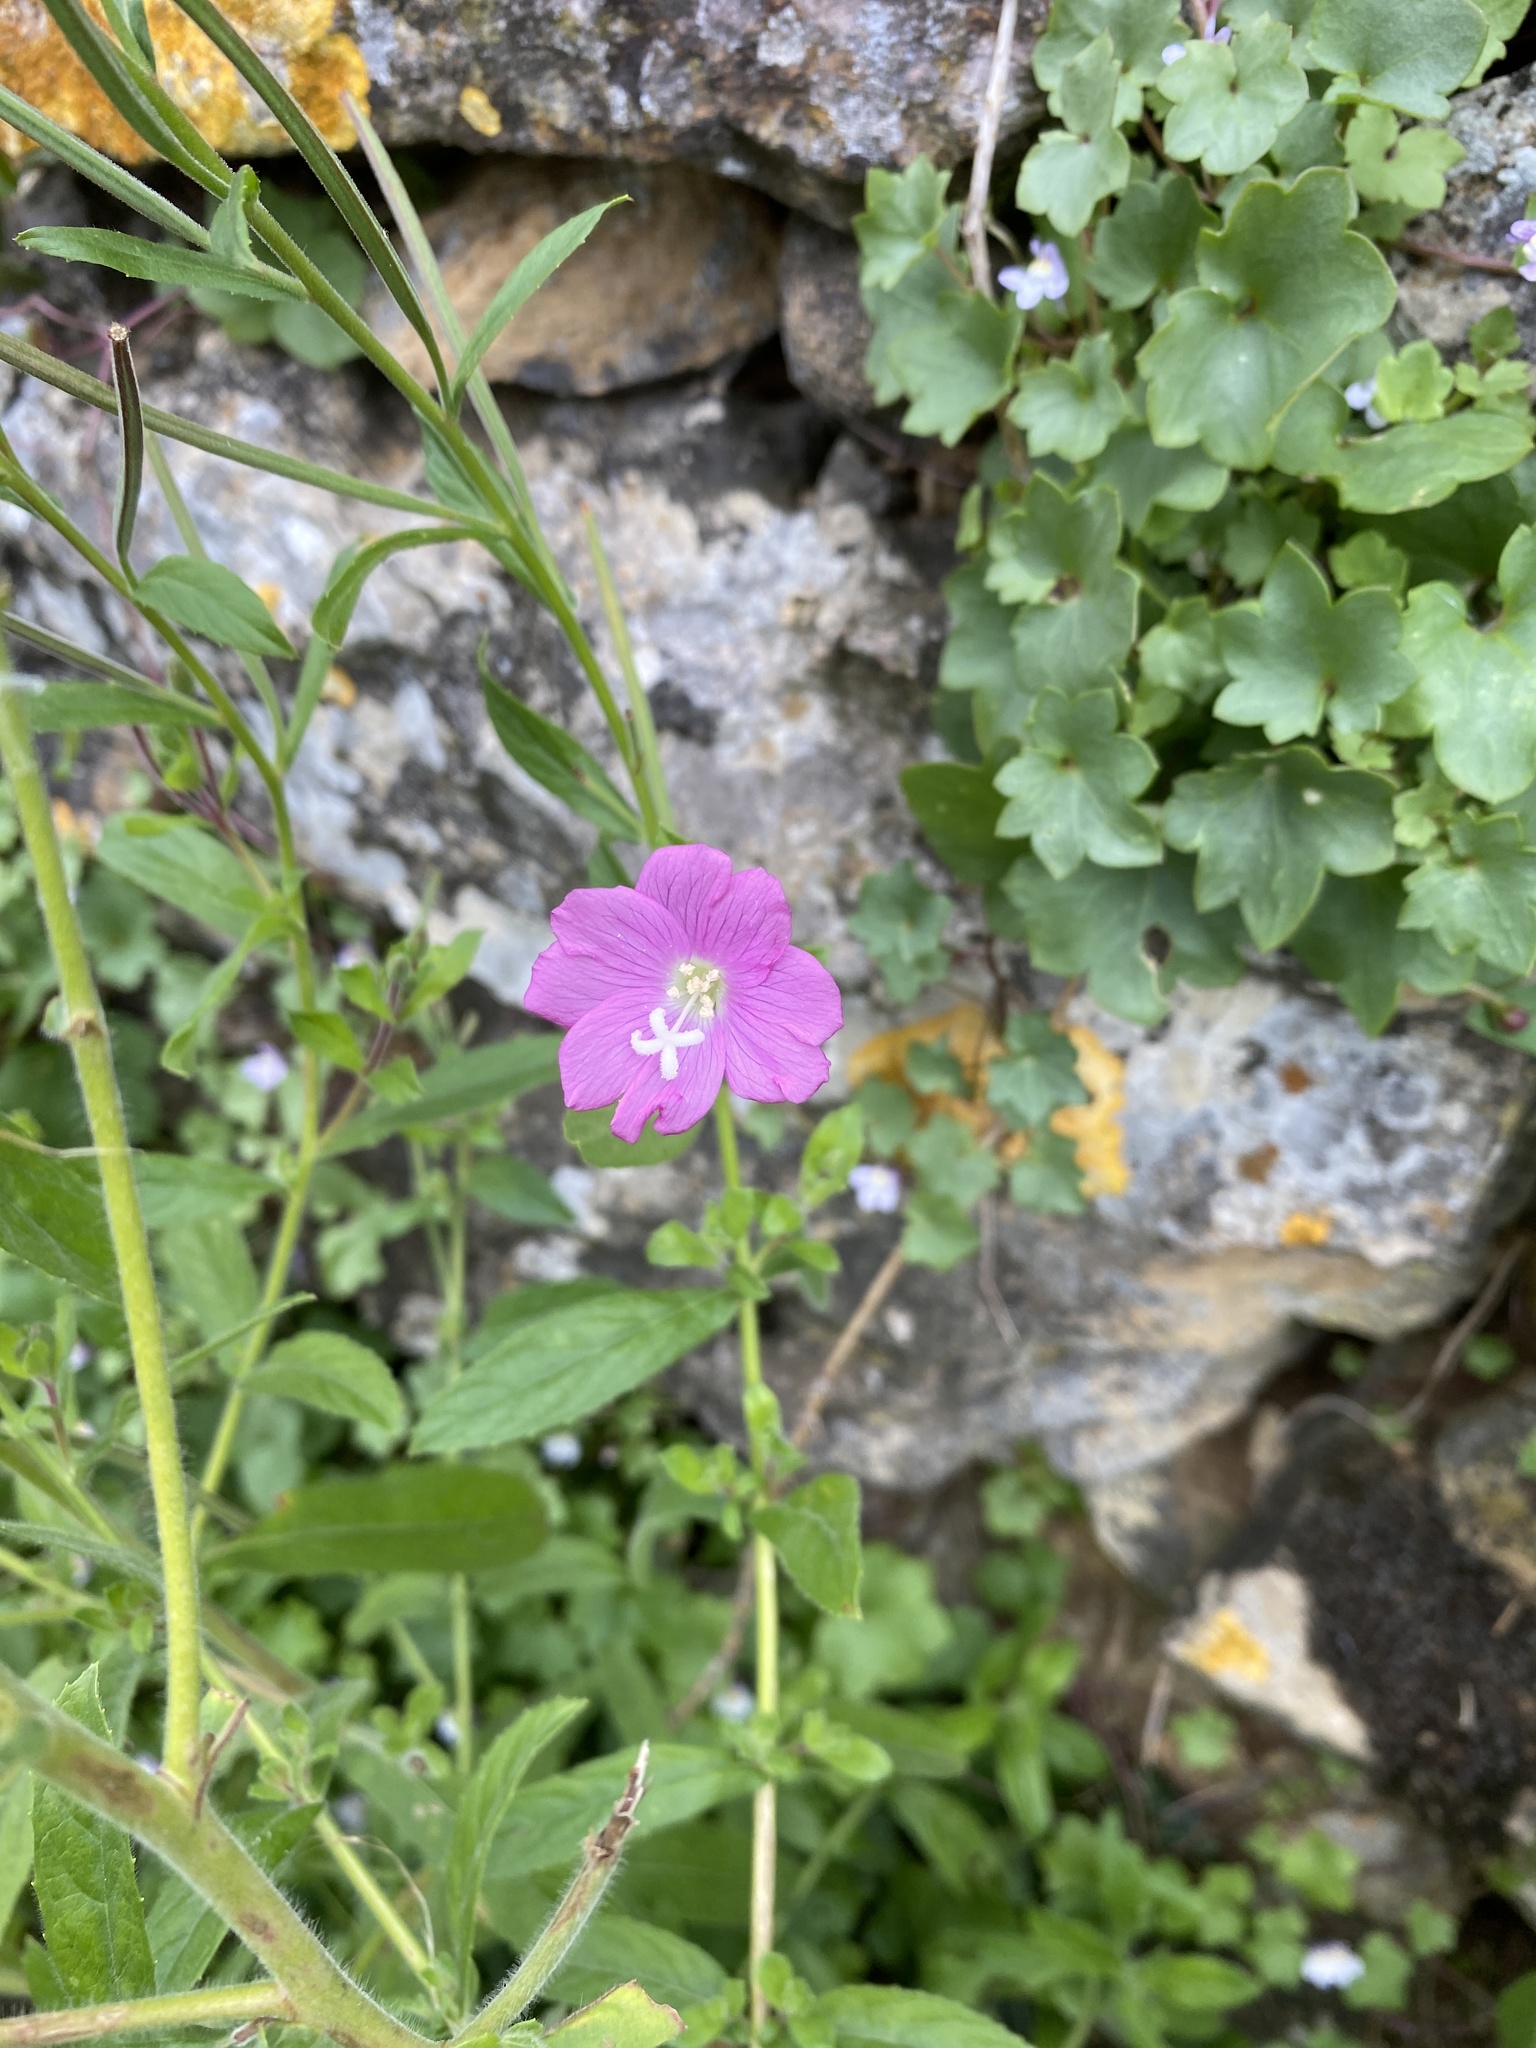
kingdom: Plantae
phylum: Tracheophyta
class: Magnoliopsida
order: Myrtales
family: Onagraceae
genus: Epilobium
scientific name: Epilobium hirsutum
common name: Great willowherb
